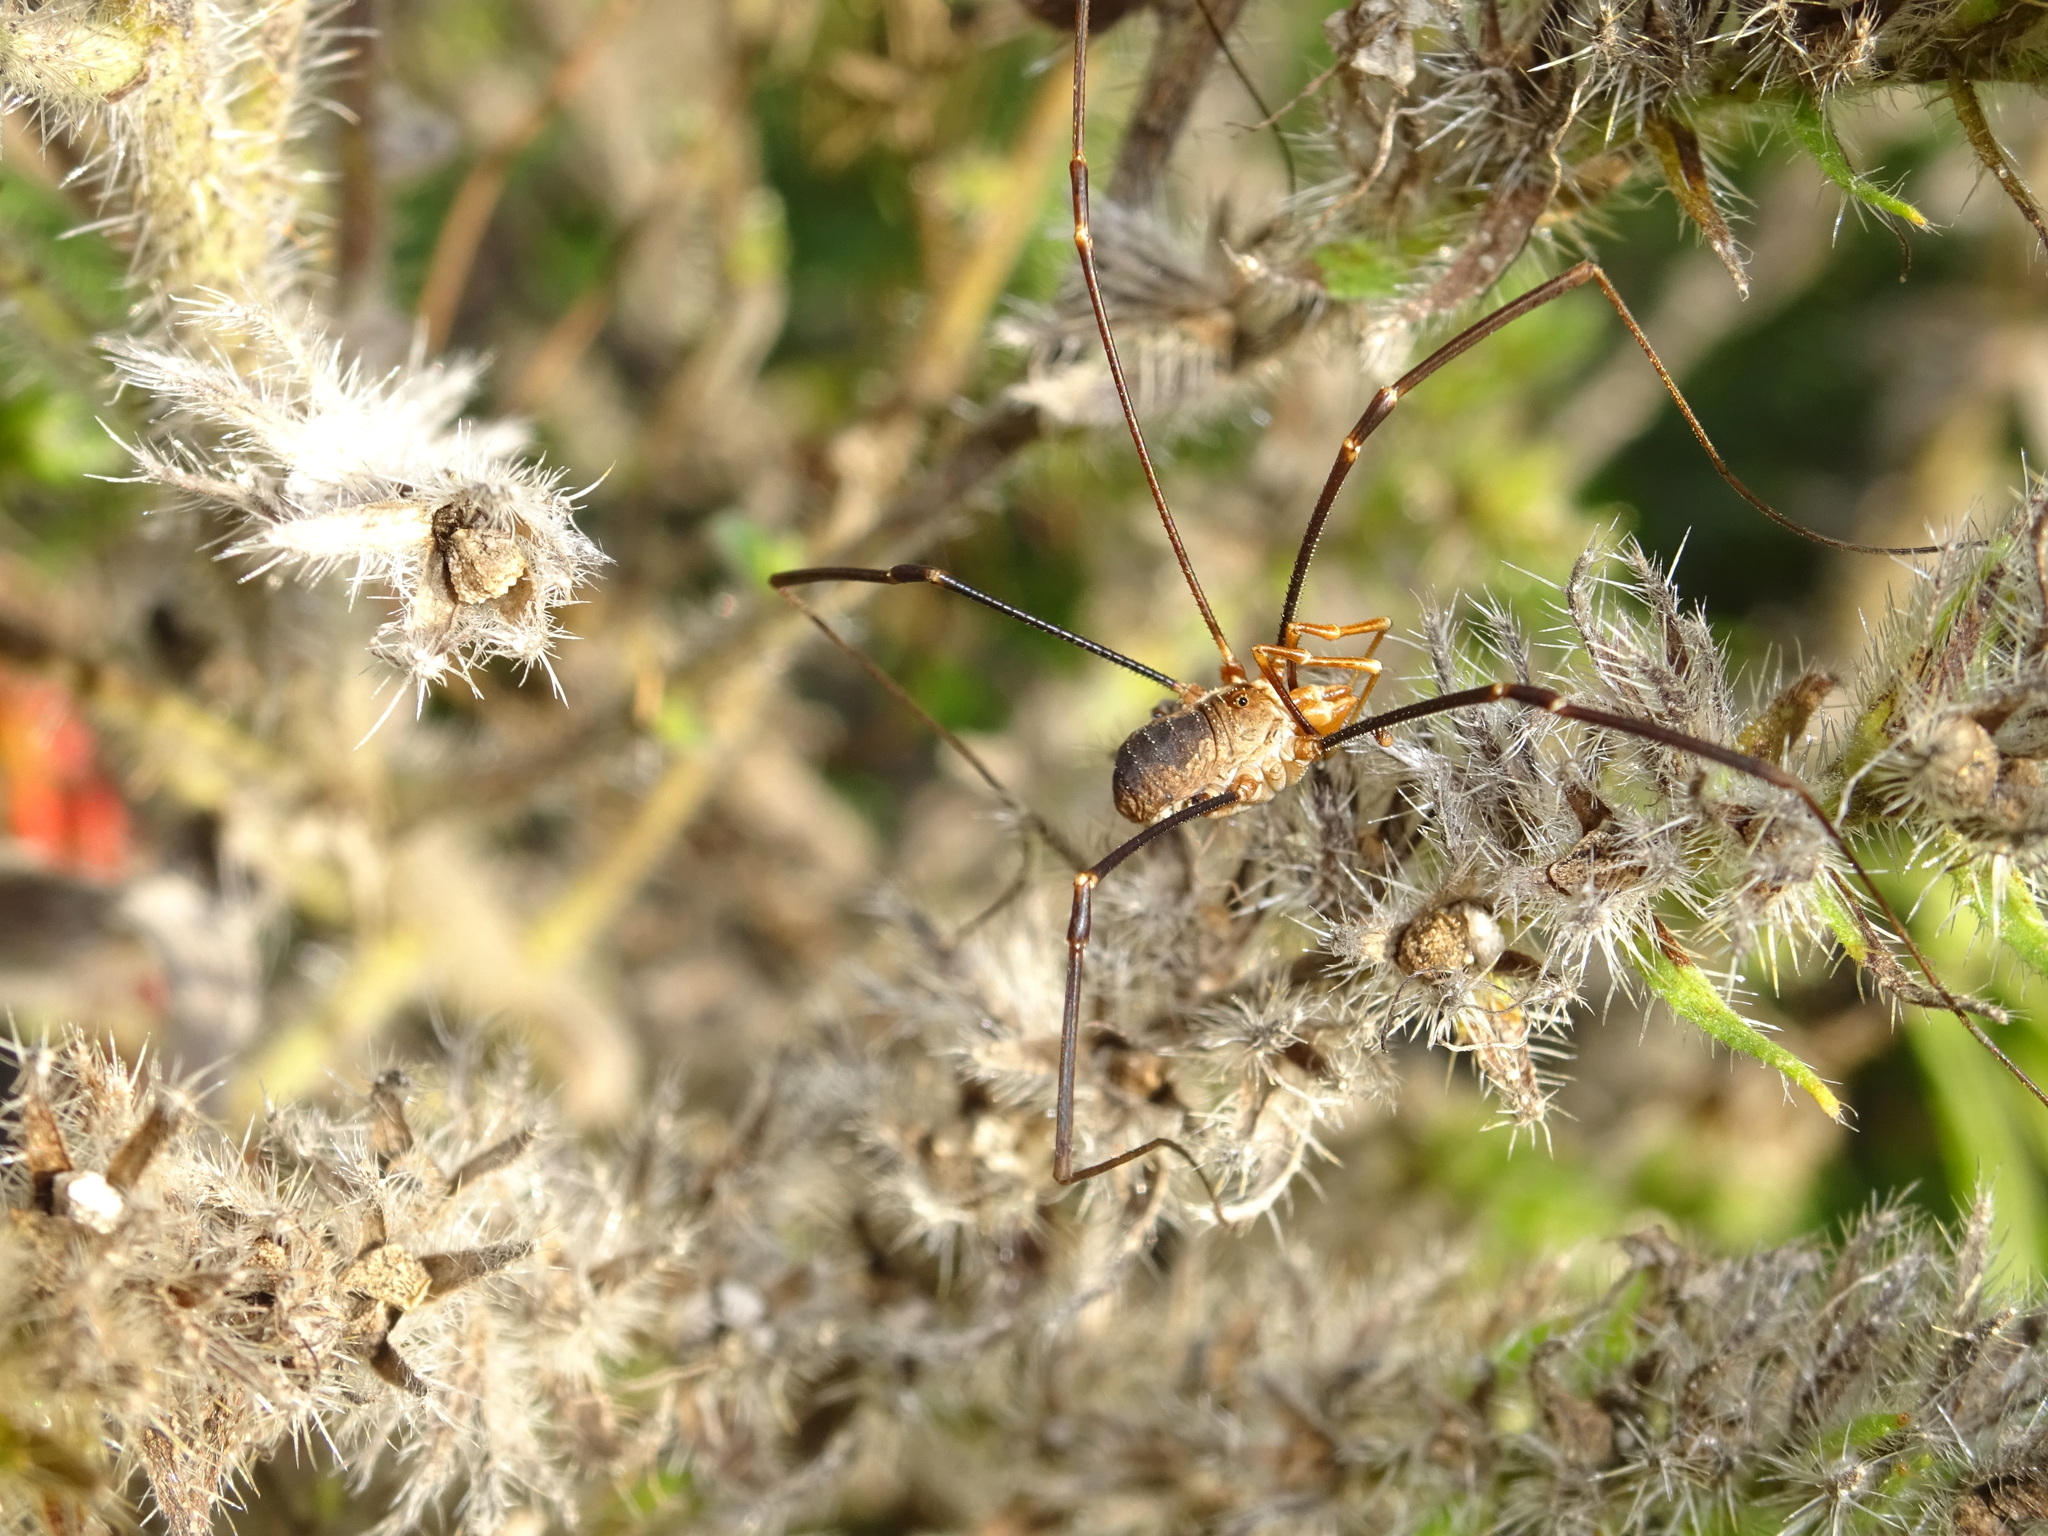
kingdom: Animalia
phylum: Arthropoda
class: Arachnida
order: Opiliones
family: Phalangiidae
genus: Phalangium
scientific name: Phalangium opilio
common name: Daddy longleg
